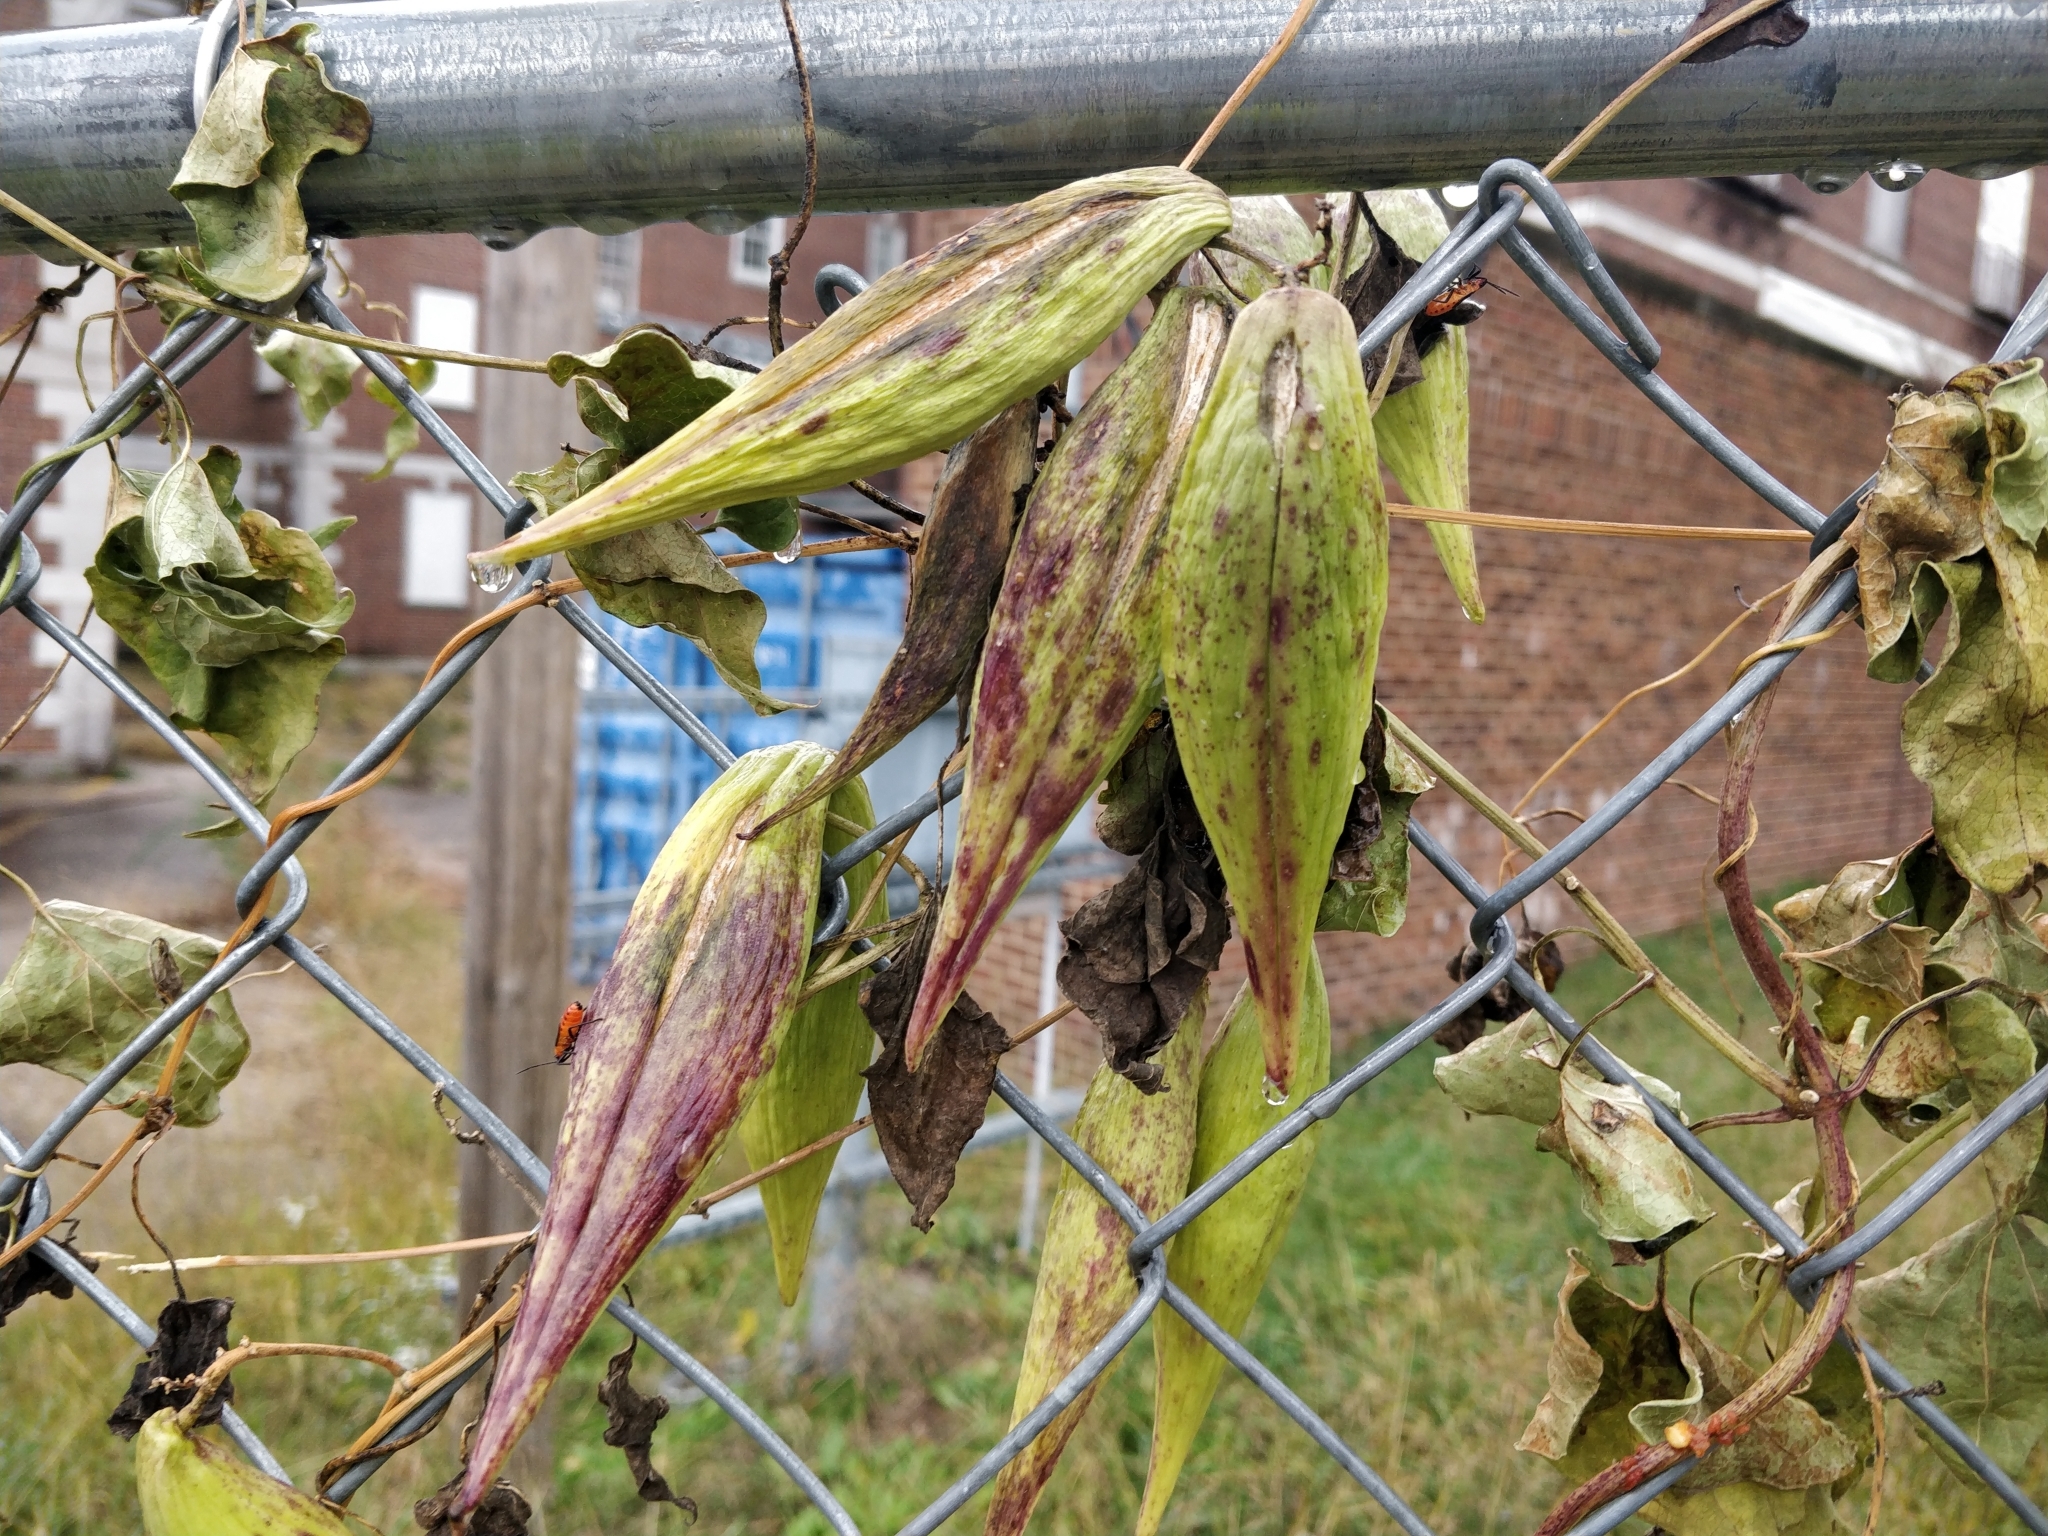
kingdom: Plantae
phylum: Tracheophyta
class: Magnoliopsida
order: Gentianales
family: Apocynaceae
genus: Cynanchum
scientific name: Cynanchum laeve
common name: Sandvine
